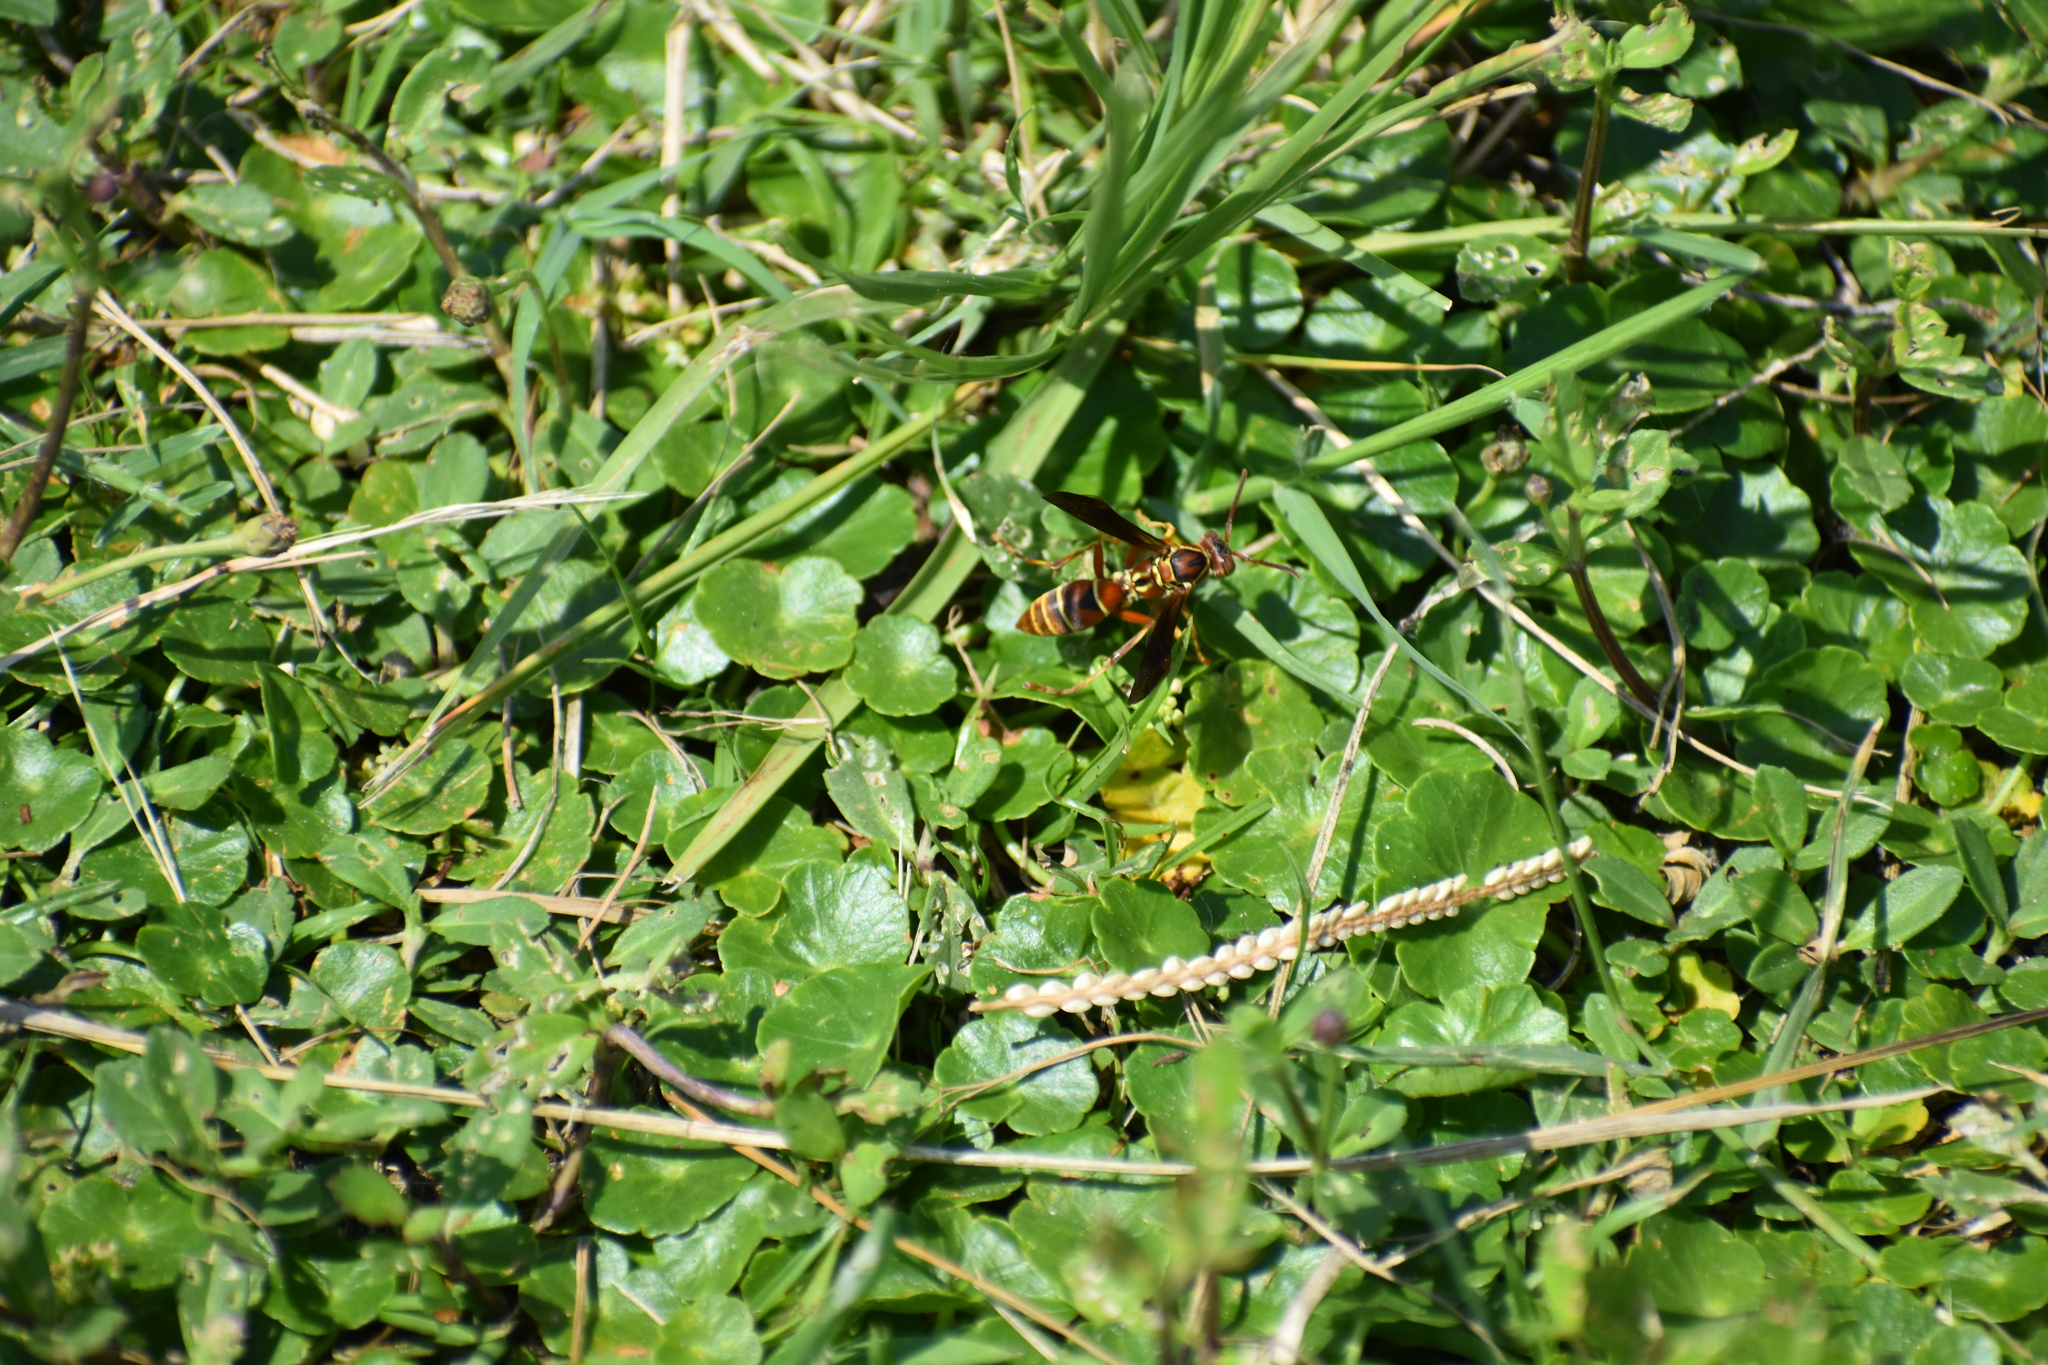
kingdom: Animalia
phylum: Arthropoda
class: Insecta
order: Hymenoptera
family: Eumenidae
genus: Polistes
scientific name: Polistes dorsalis
